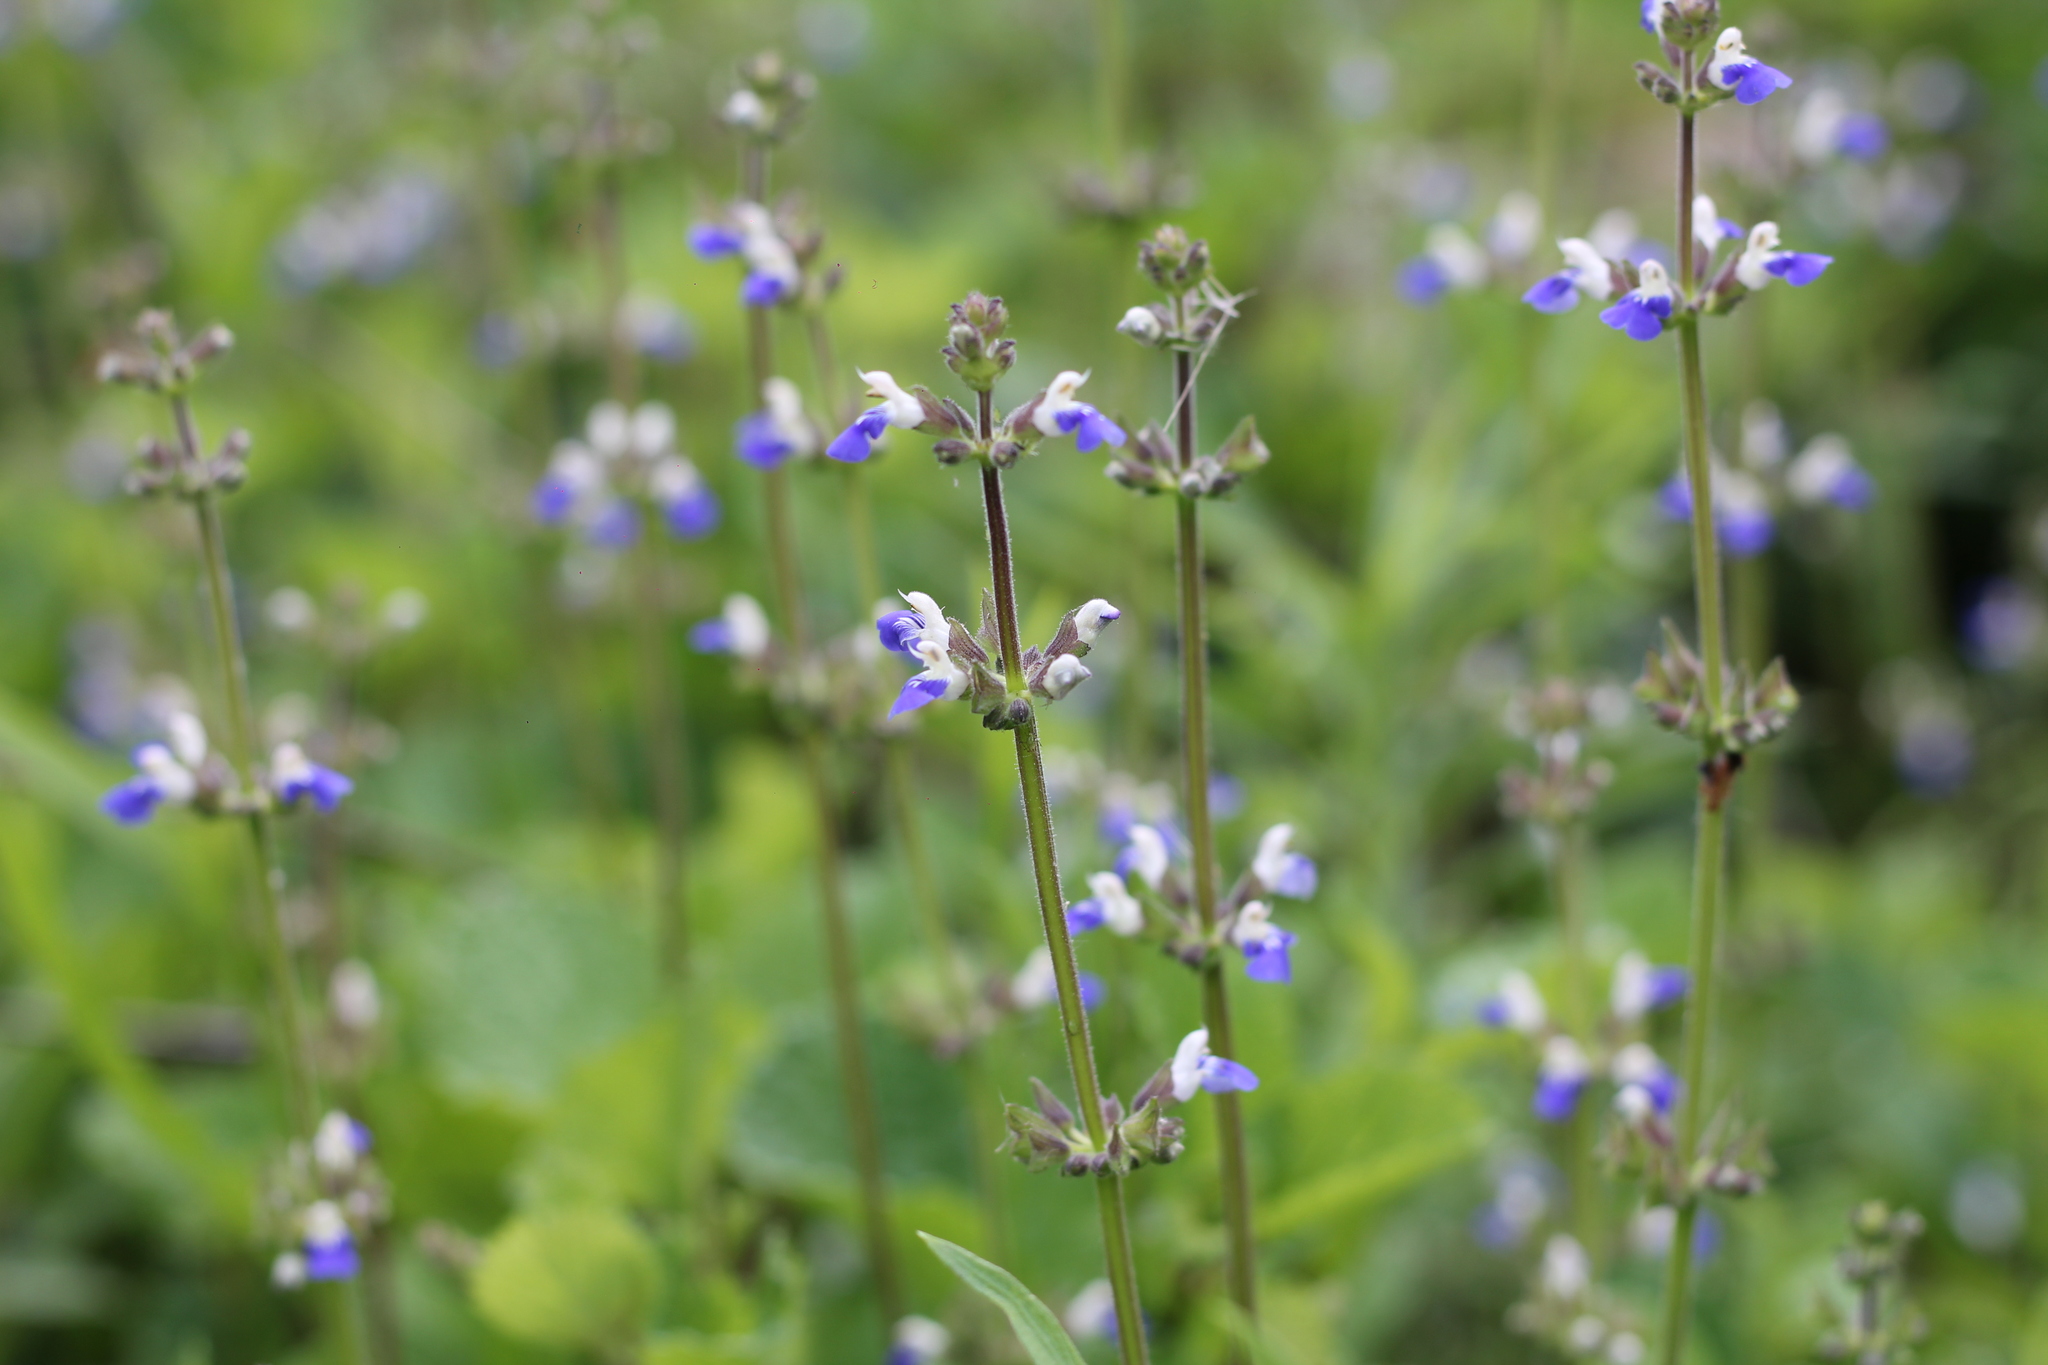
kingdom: Plantae
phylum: Tracheophyta
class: Magnoliopsida
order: Lamiales
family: Lamiaceae
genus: Salvia
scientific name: Salvia procurrens
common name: Blue creeper
